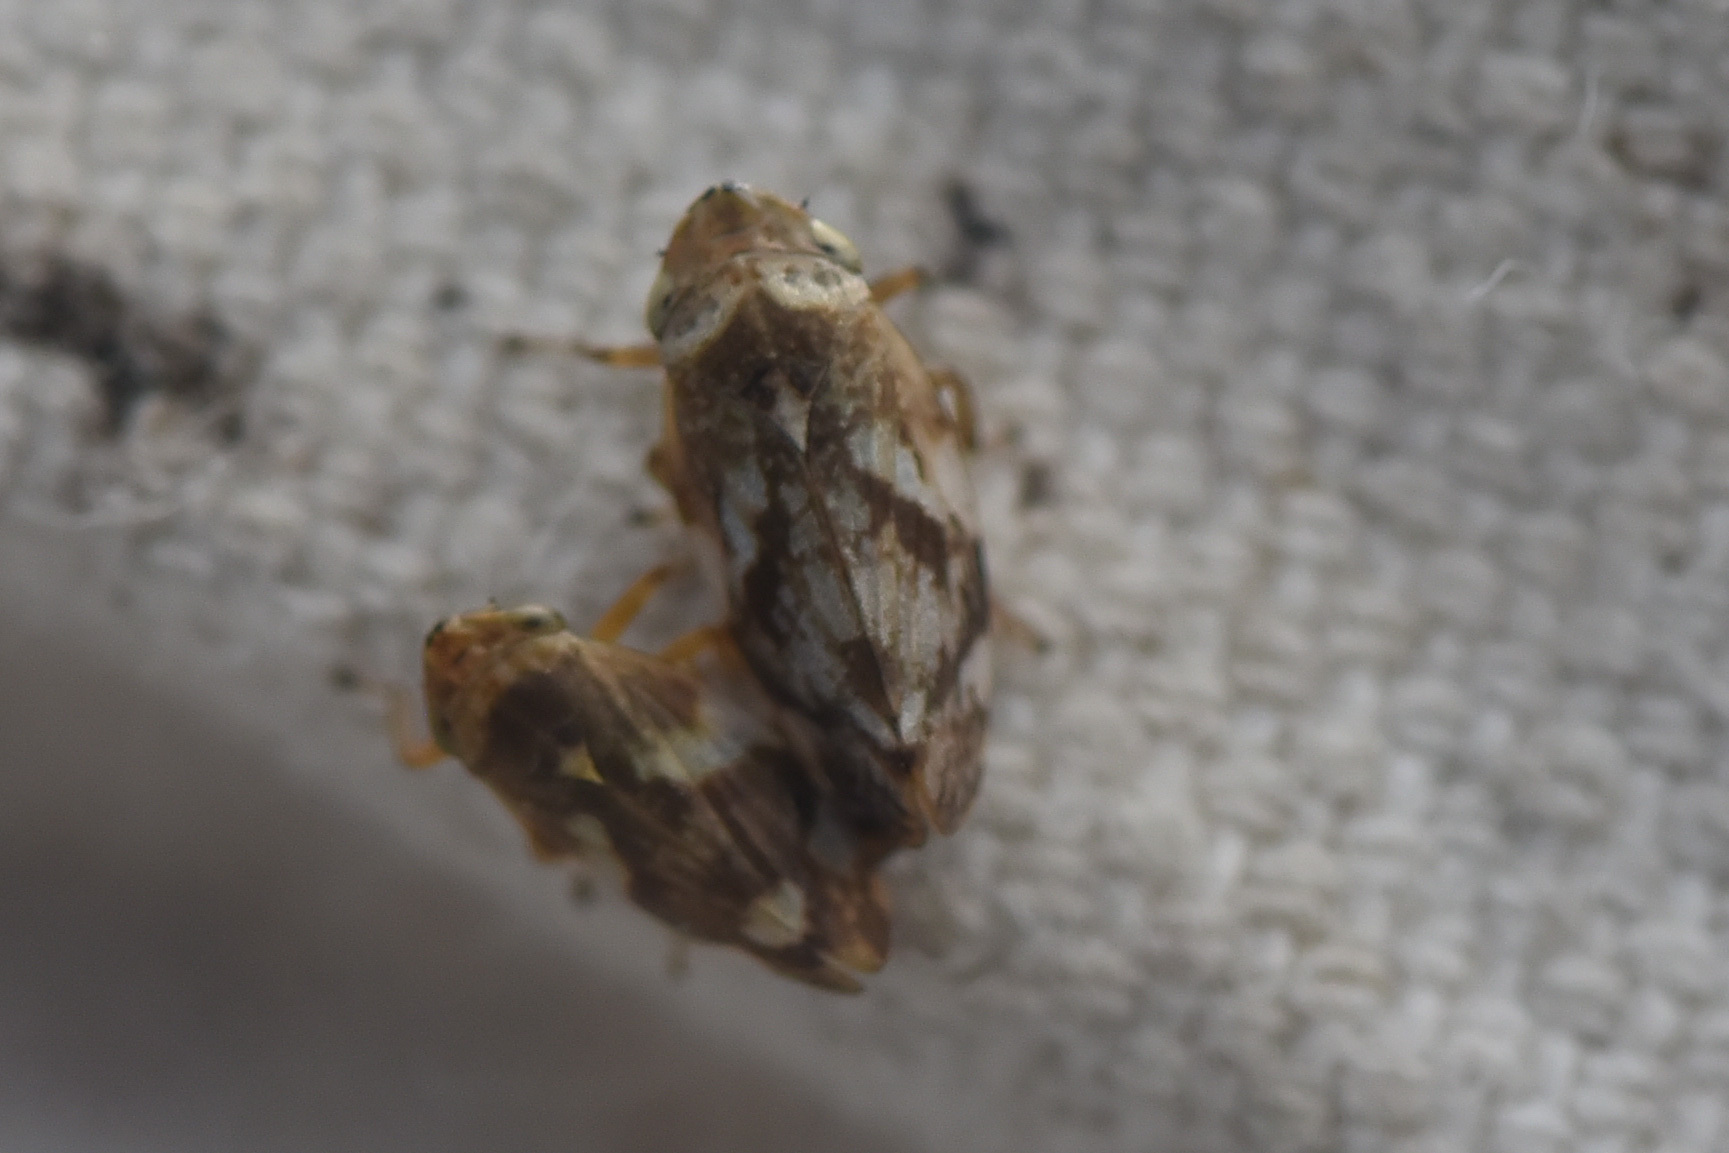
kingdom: Animalia
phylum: Arthropoda
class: Insecta
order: Hemiptera
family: Aphrophoridae
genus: Philaenus
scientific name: Philaenus spumarius
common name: Meadow spittlebug
